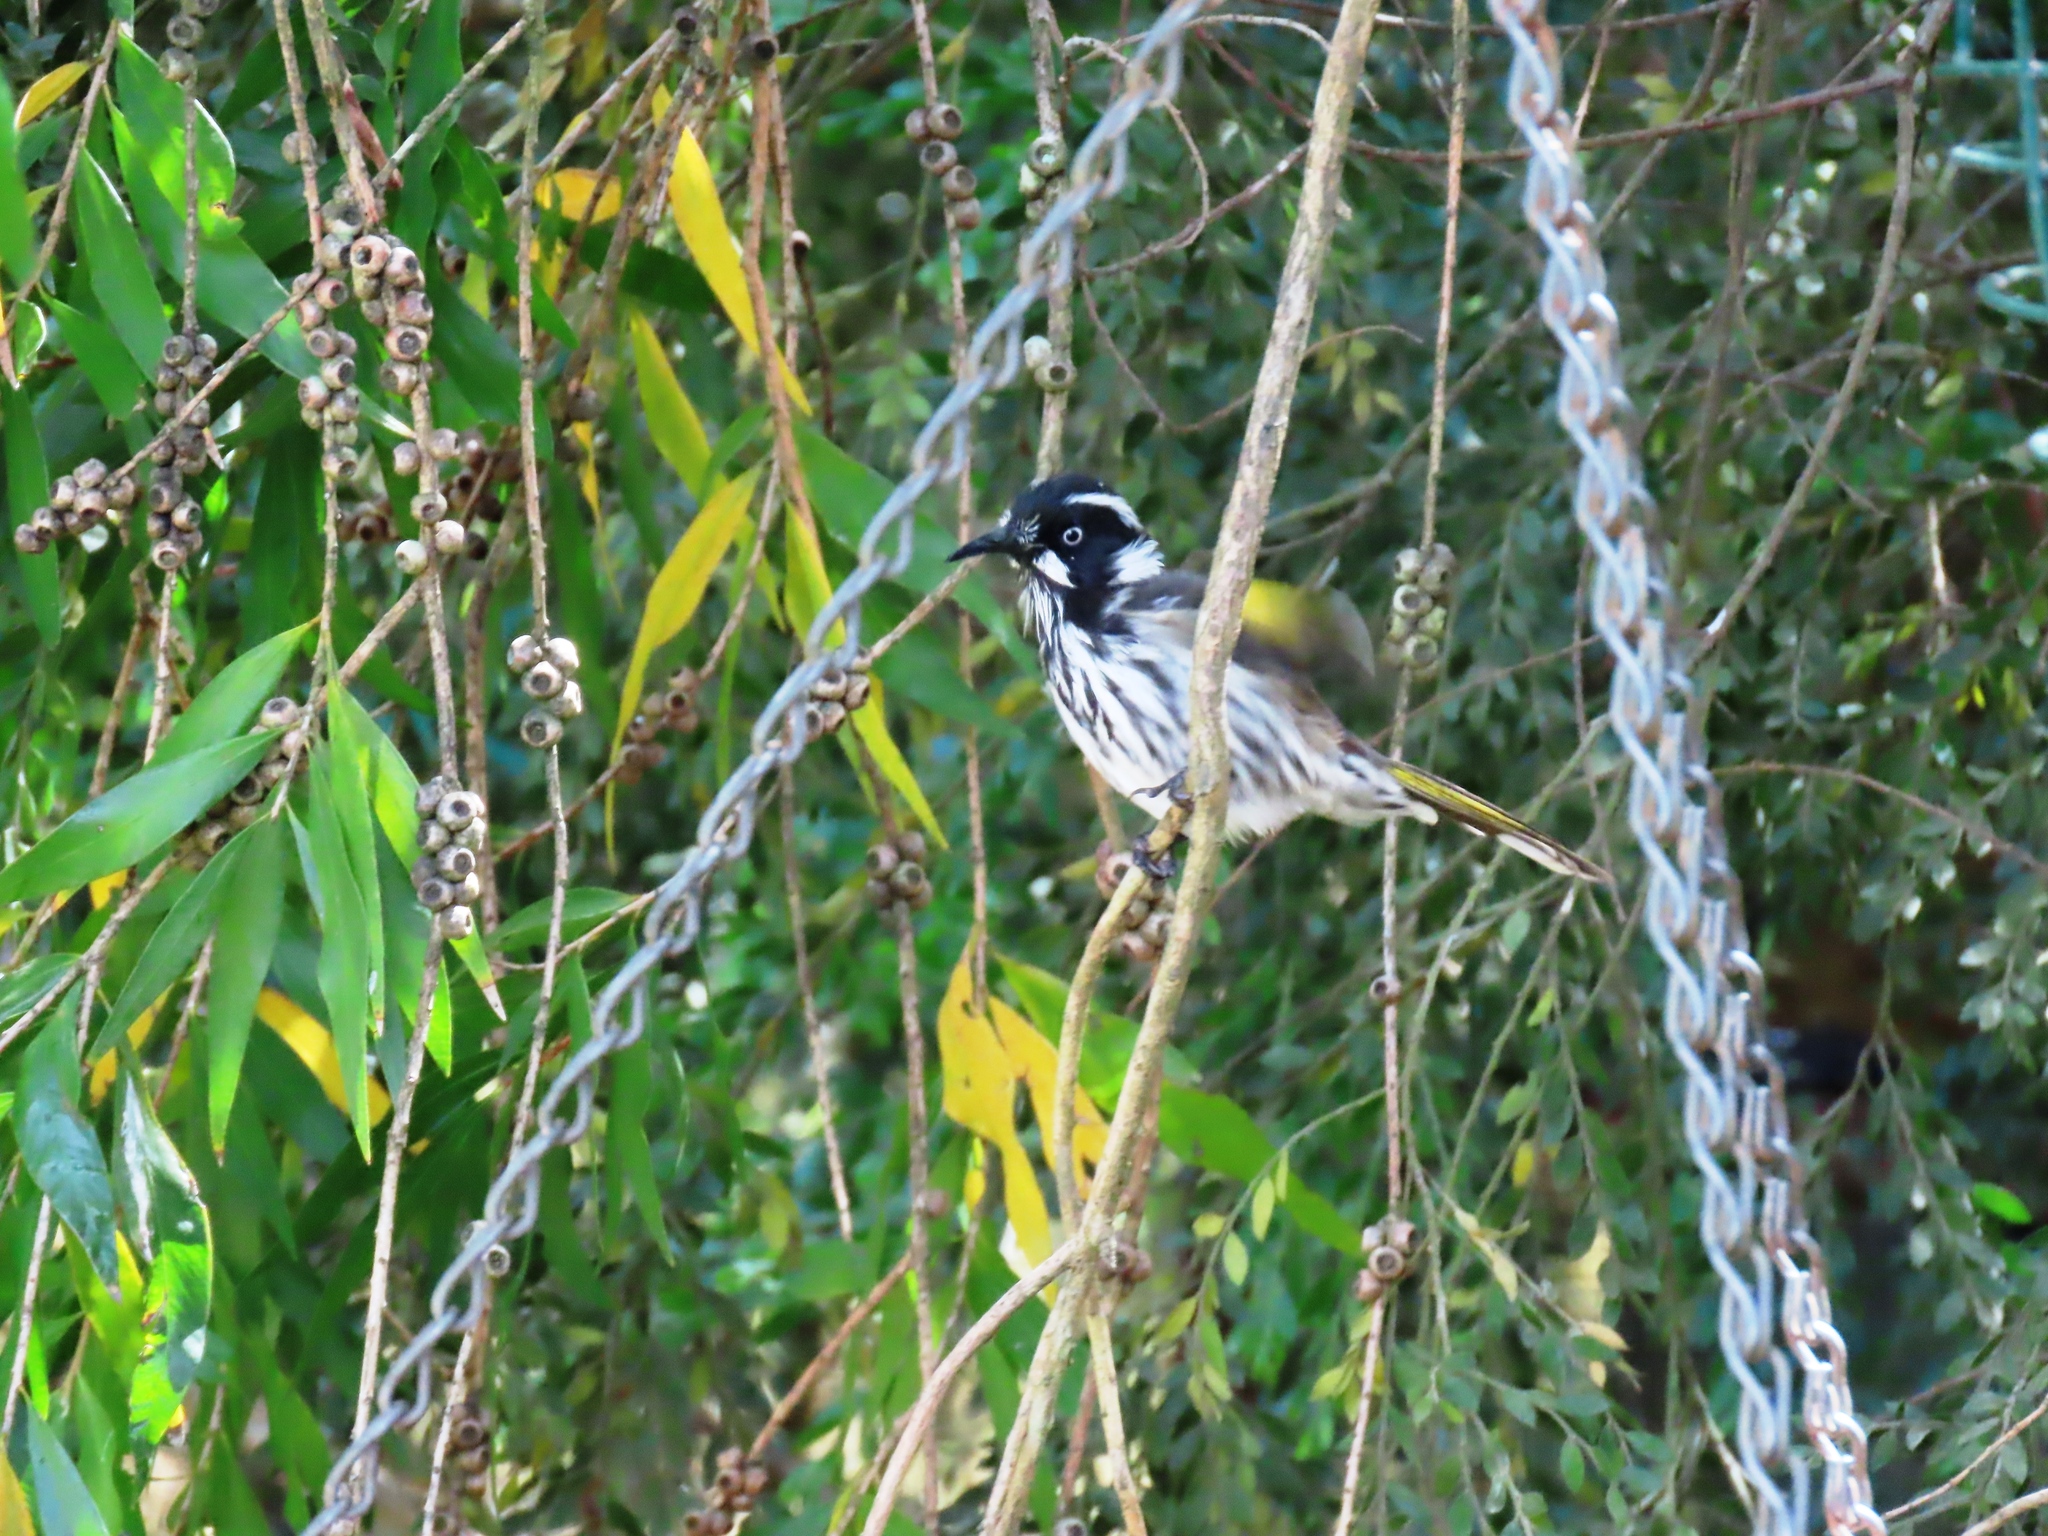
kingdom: Animalia
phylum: Chordata
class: Aves
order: Passeriformes
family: Meliphagidae
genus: Phylidonyris
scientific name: Phylidonyris novaehollandiae
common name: New holland honeyeater
